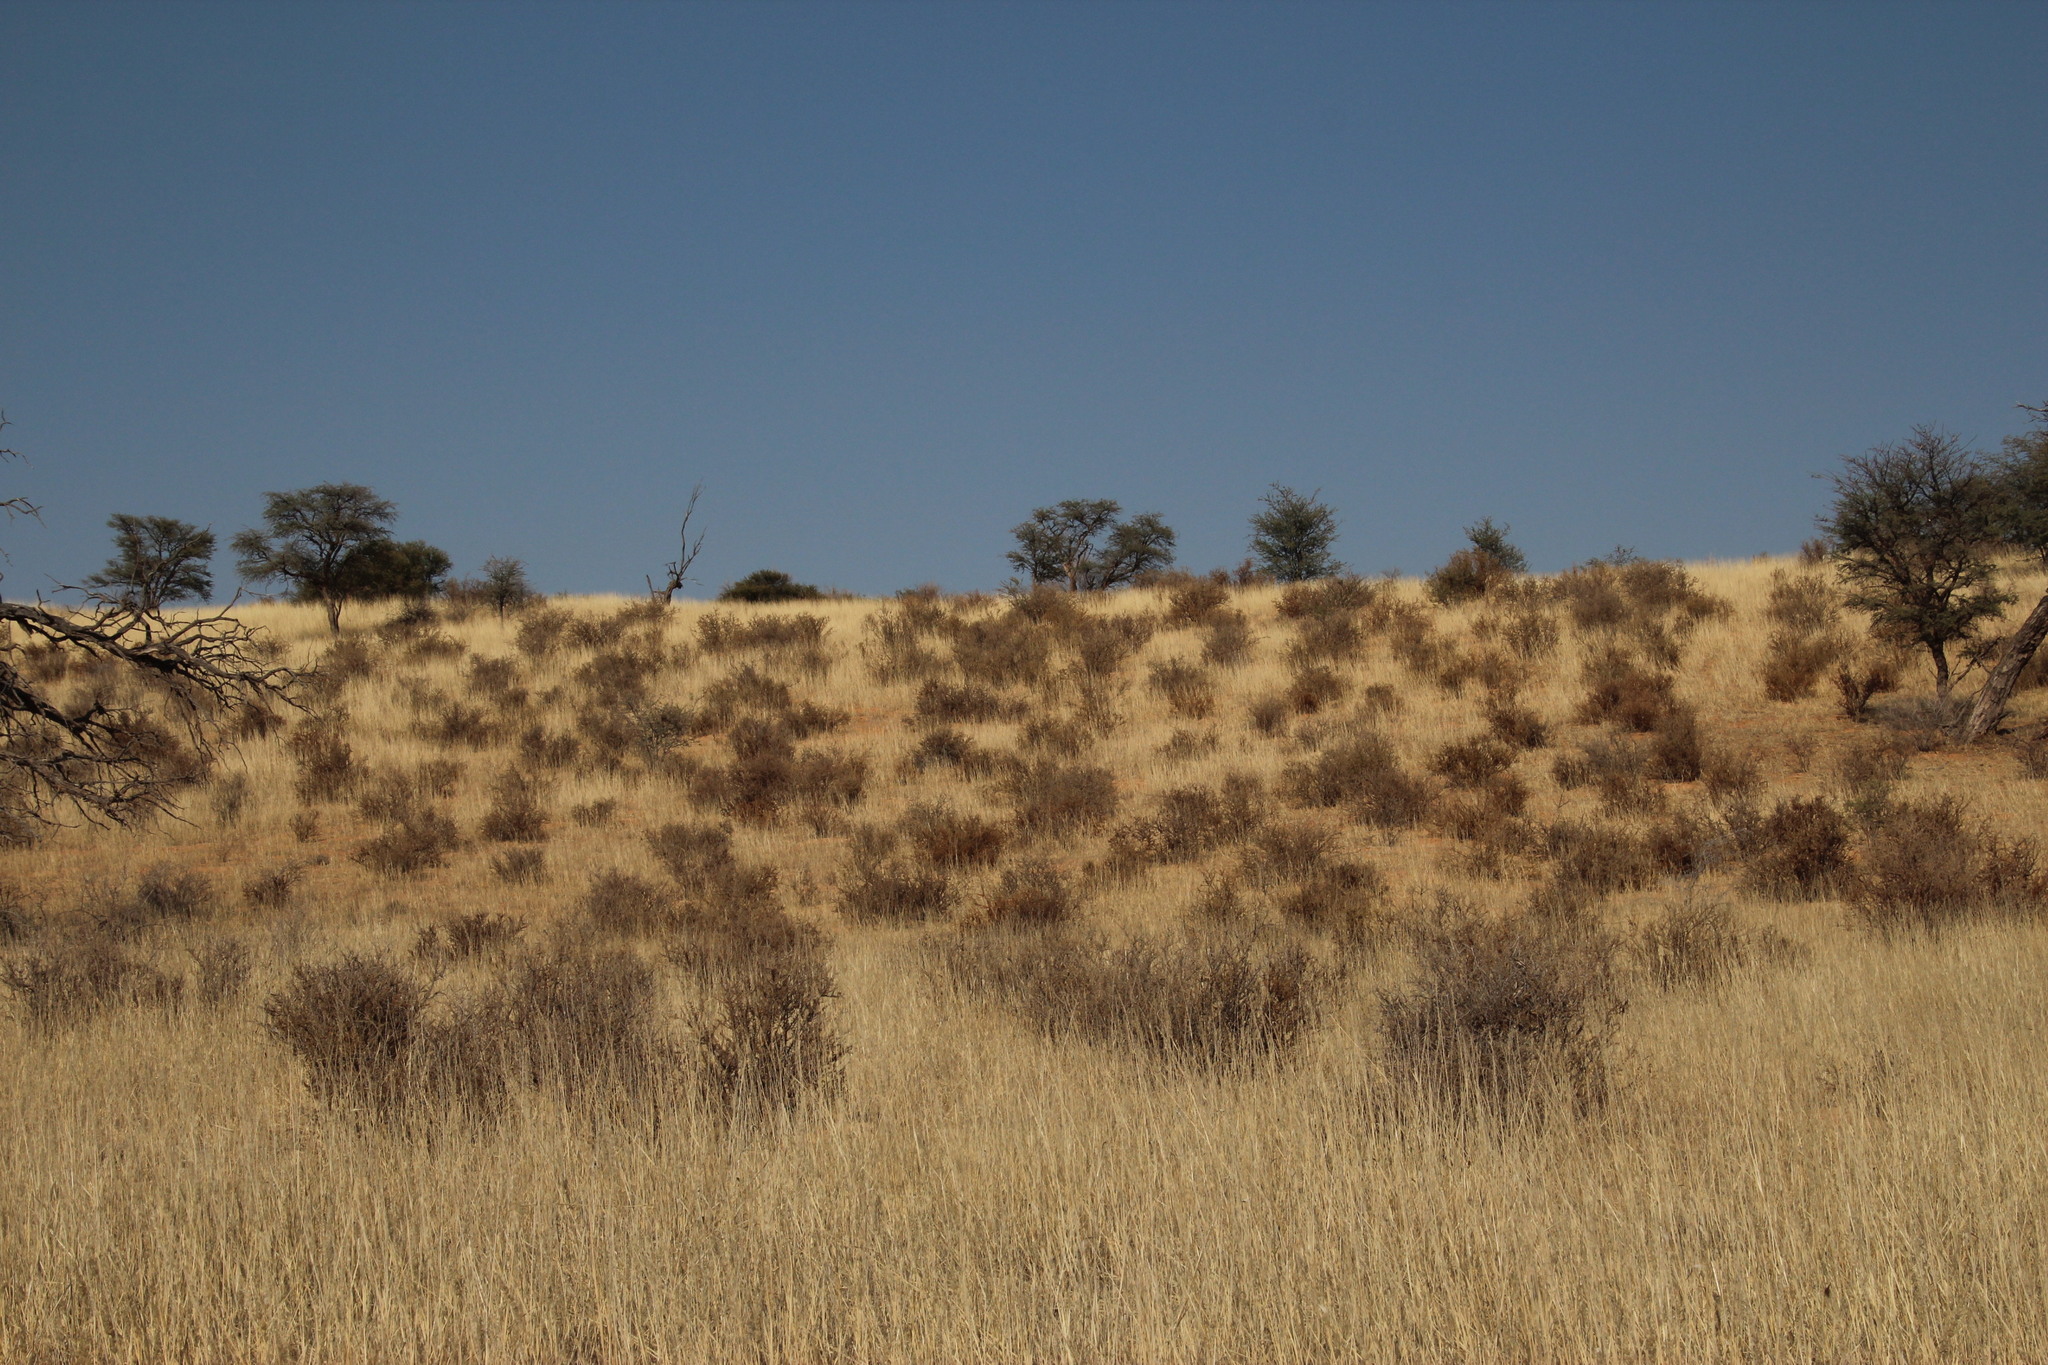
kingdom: Plantae
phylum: Tracheophyta
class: Magnoliopsida
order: Lamiales
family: Bignoniaceae
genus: Rhigozum
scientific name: Rhigozum trichotomum
